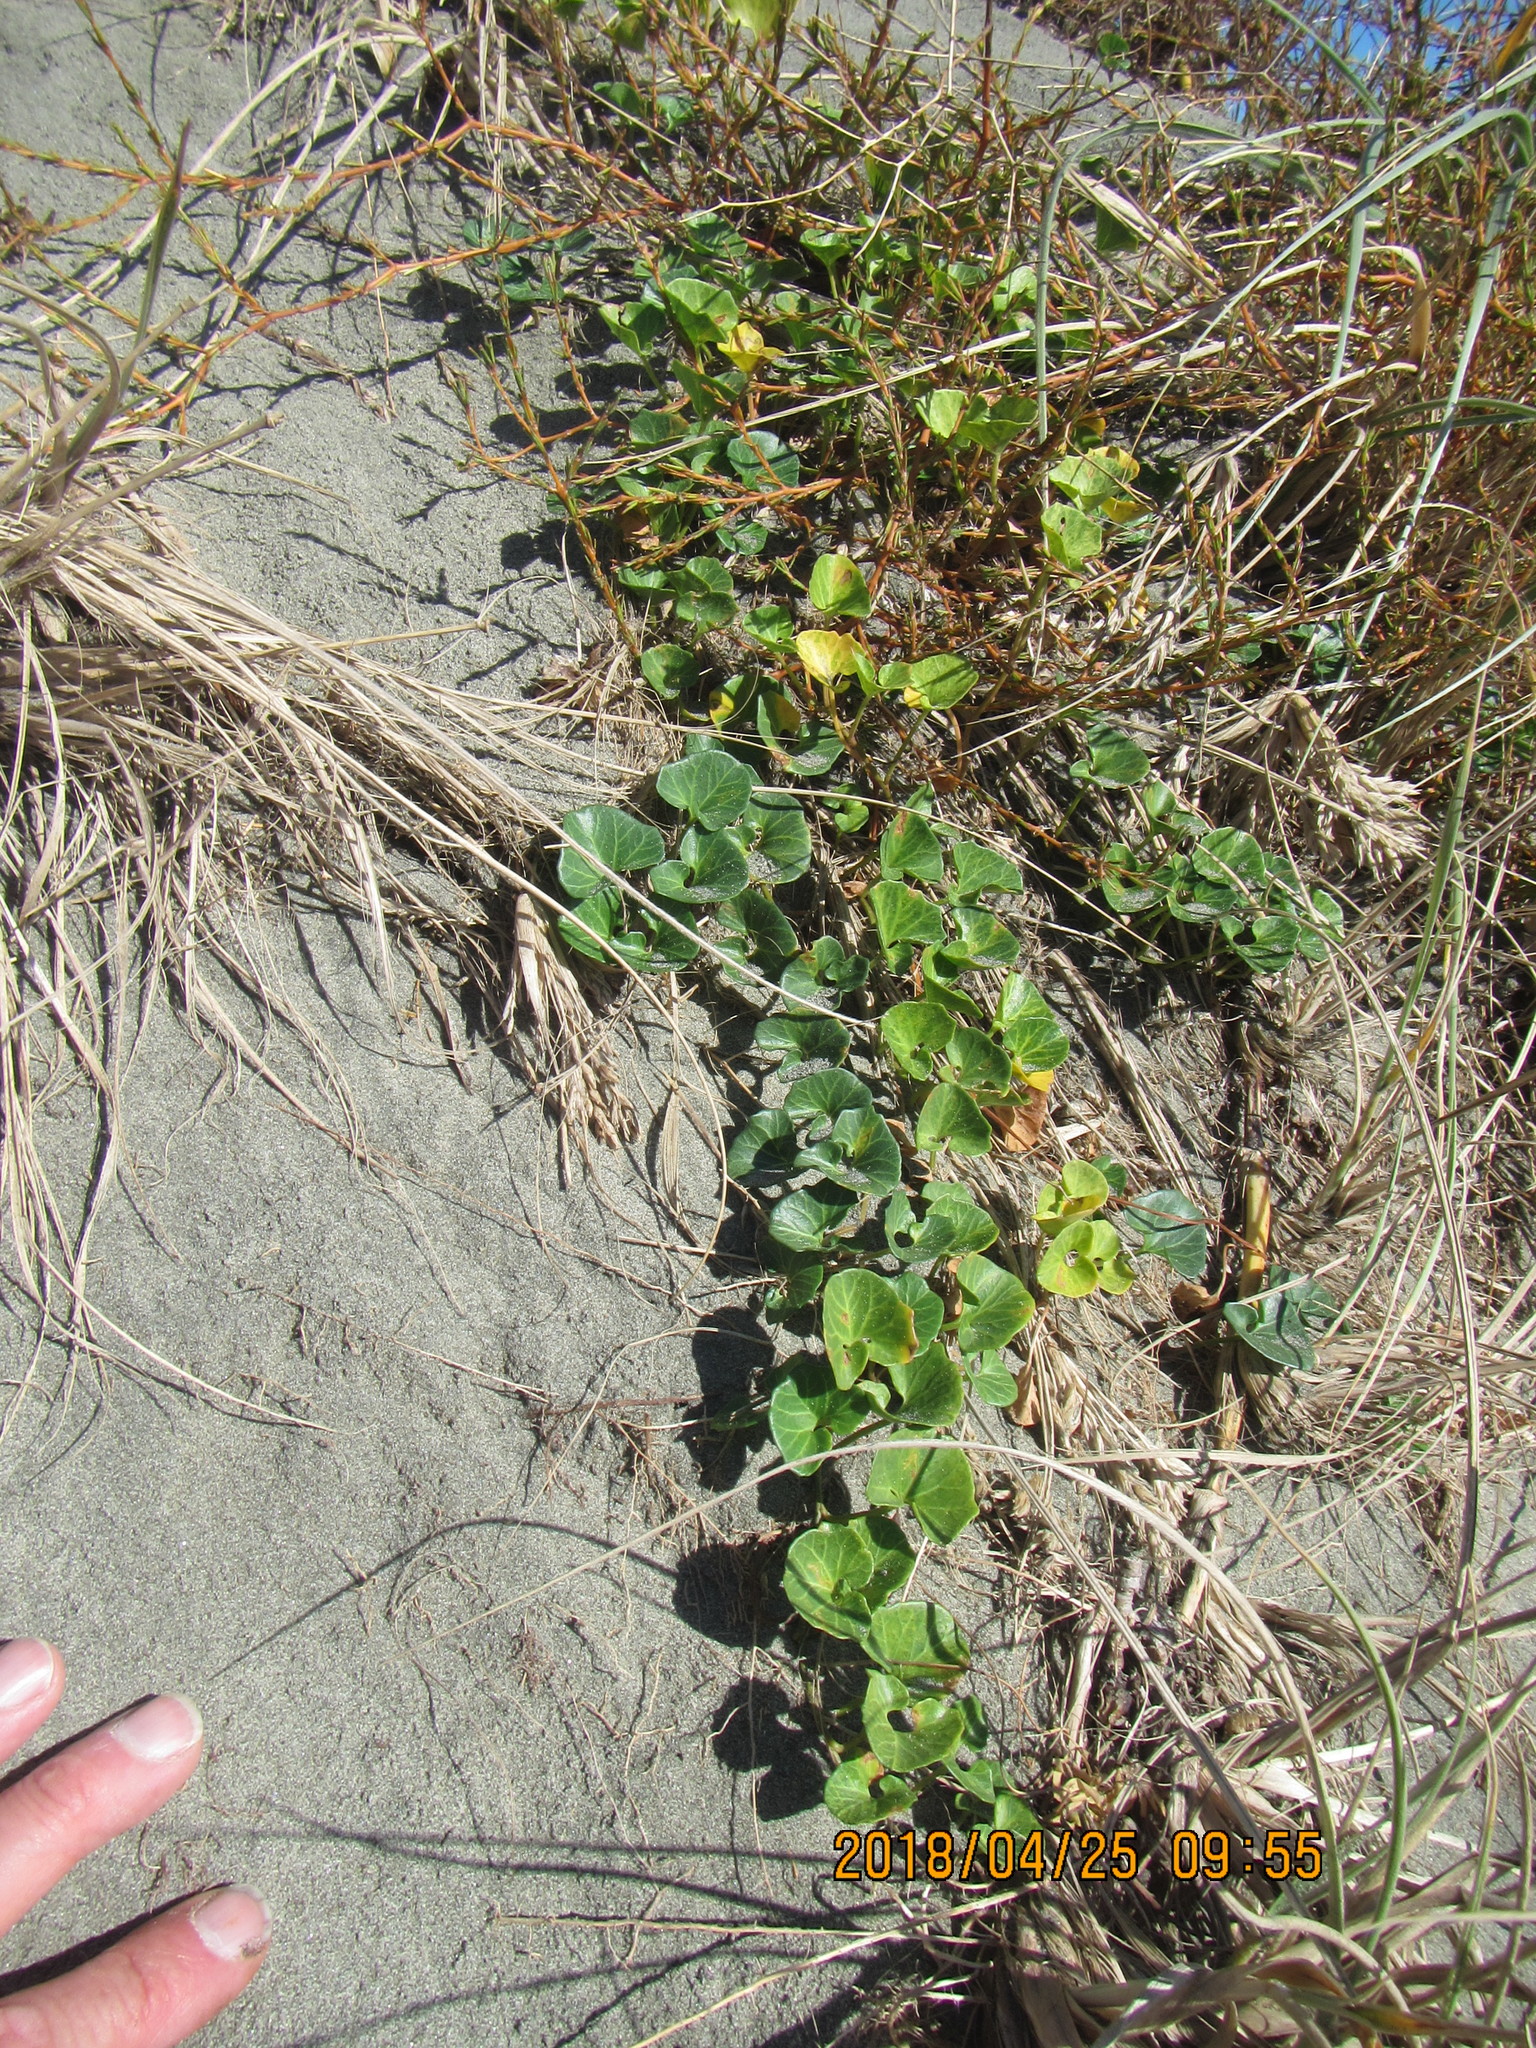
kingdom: Plantae
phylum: Tracheophyta
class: Magnoliopsida
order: Solanales
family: Convolvulaceae
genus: Calystegia
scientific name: Calystegia soldanella
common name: Sea bindweed
